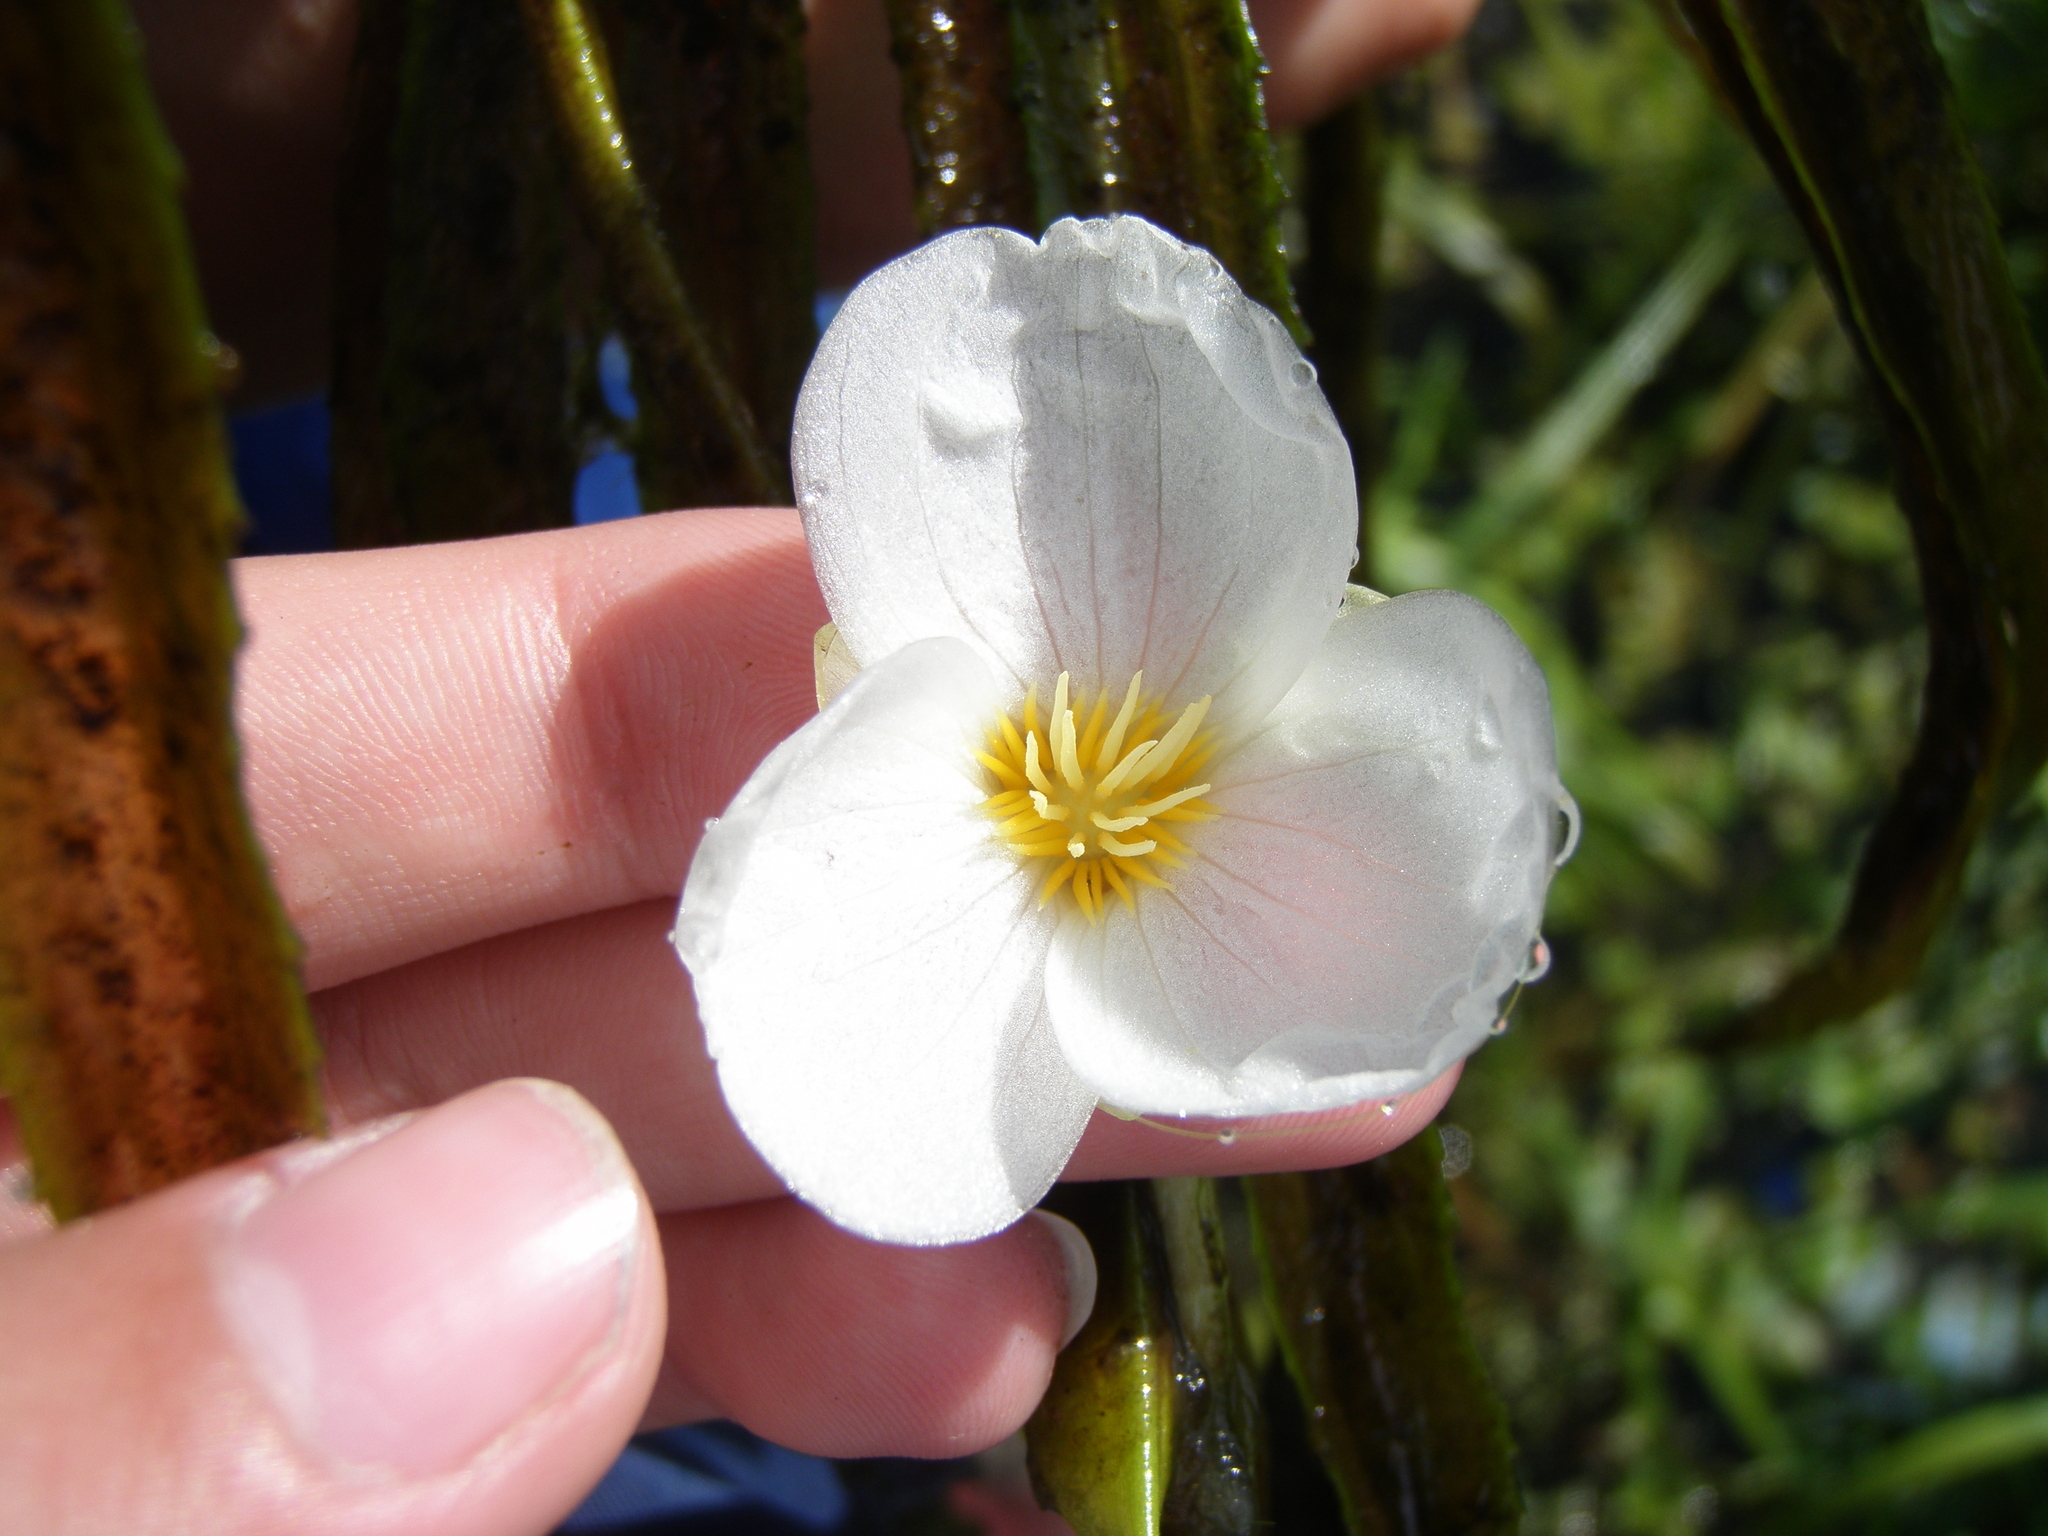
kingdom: Plantae
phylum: Tracheophyta
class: Liliopsida
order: Alismatales
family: Hydrocharitaceae
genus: Stratiotes
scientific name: Stratiotes aloides
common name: Water-soldier
